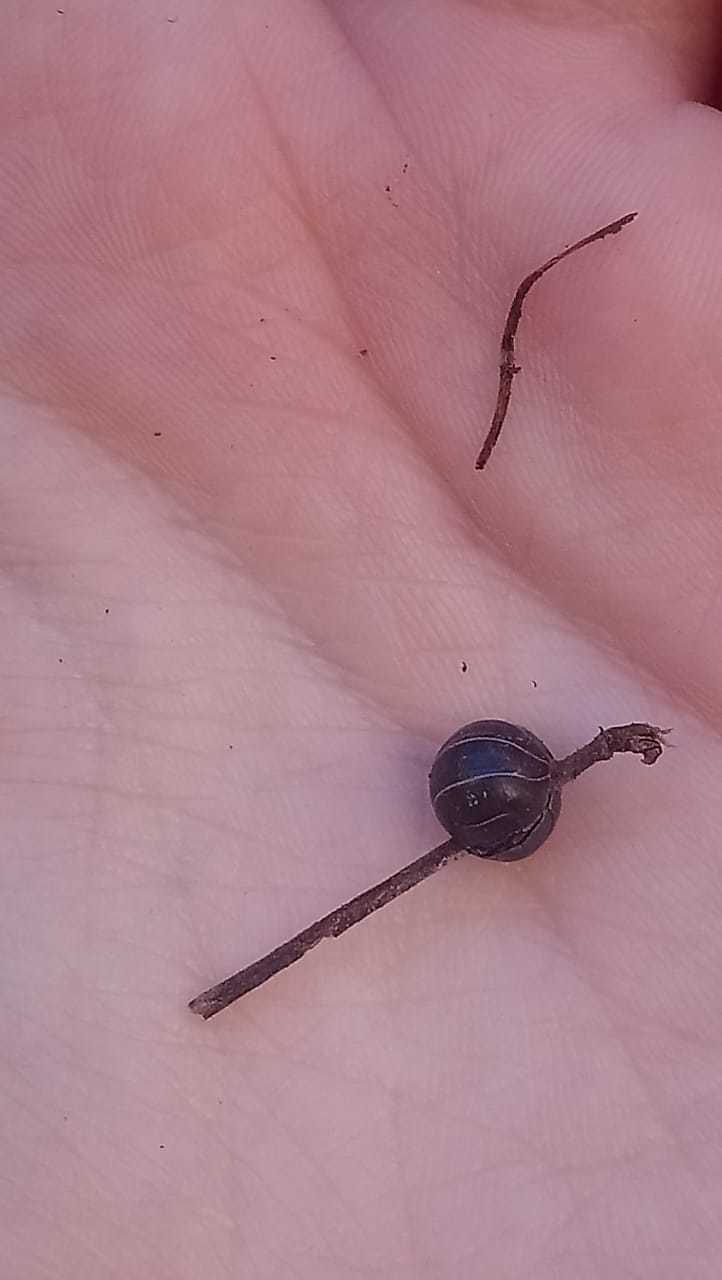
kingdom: Animalia
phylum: Arthropoda
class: Malacostraca
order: Isopoda
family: Armadillidiidae
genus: Armadillidium
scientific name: Armadillidium vulgare
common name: Common pill woodlouse
